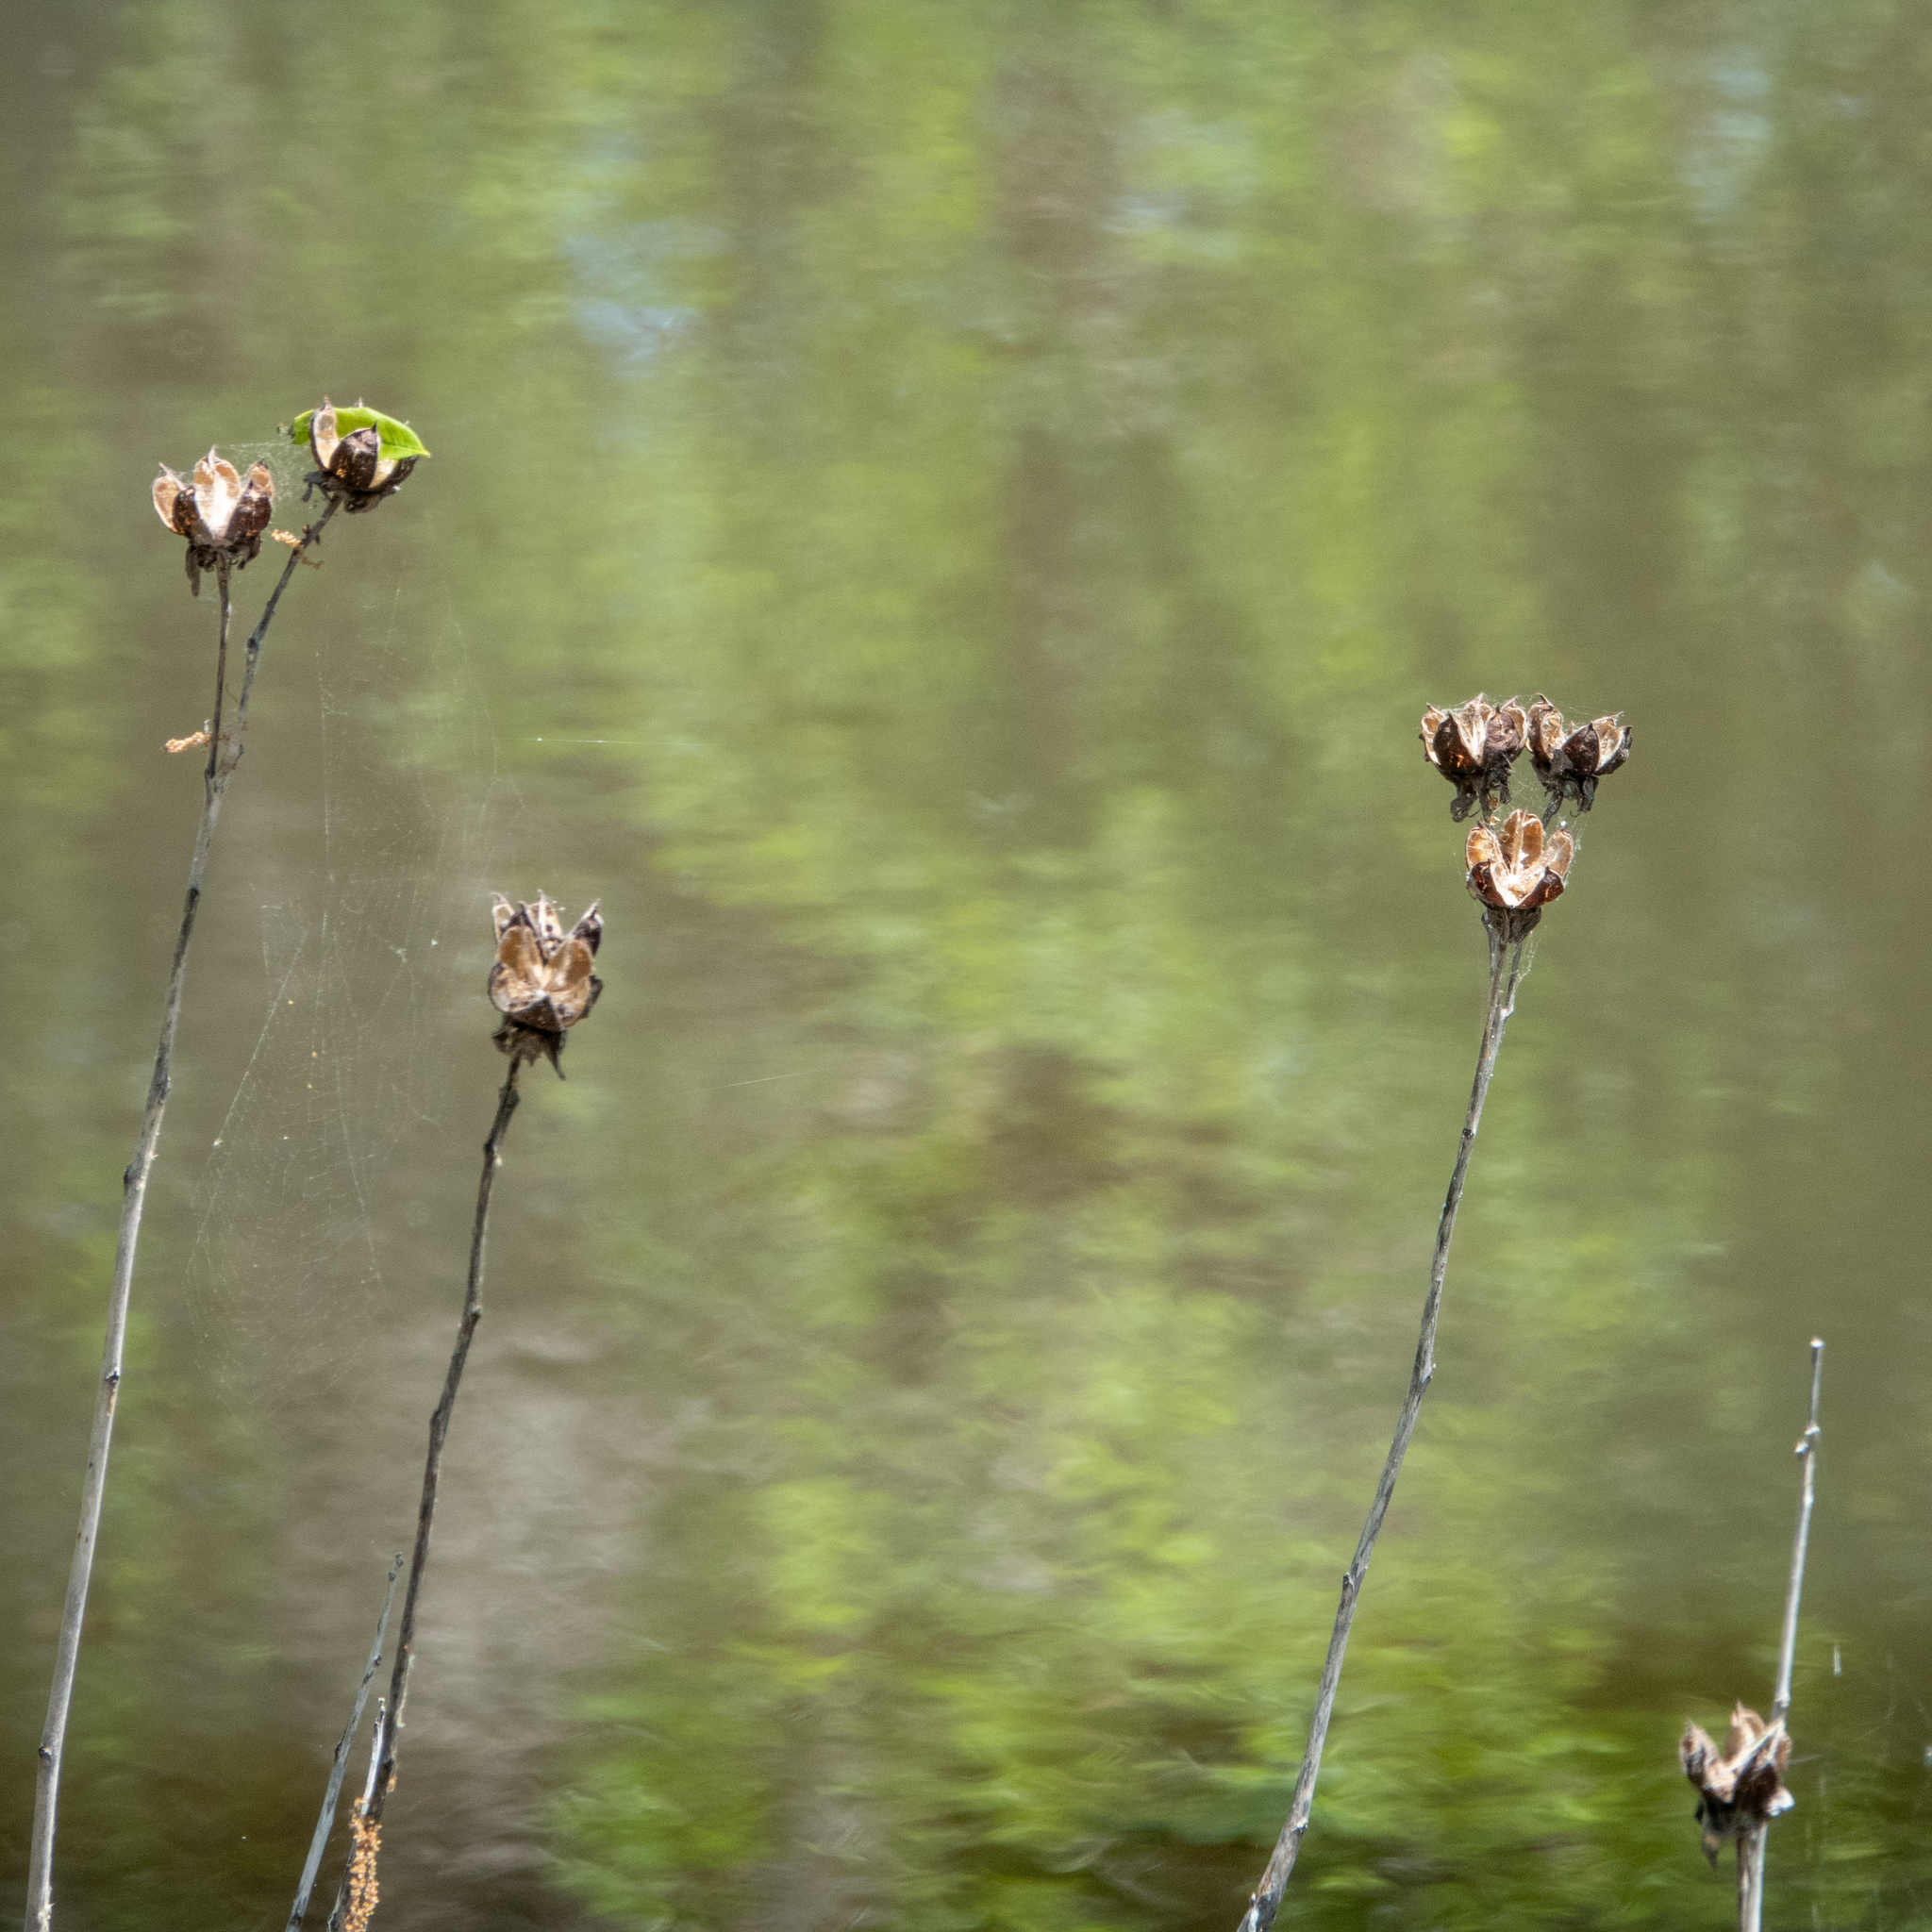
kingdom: Plantae
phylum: Tracheophyta
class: Magnoliopsida
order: Malvales
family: Malvaceae
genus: Hibiscus
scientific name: Hibiscus moscheutos
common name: Common rose-mallow
